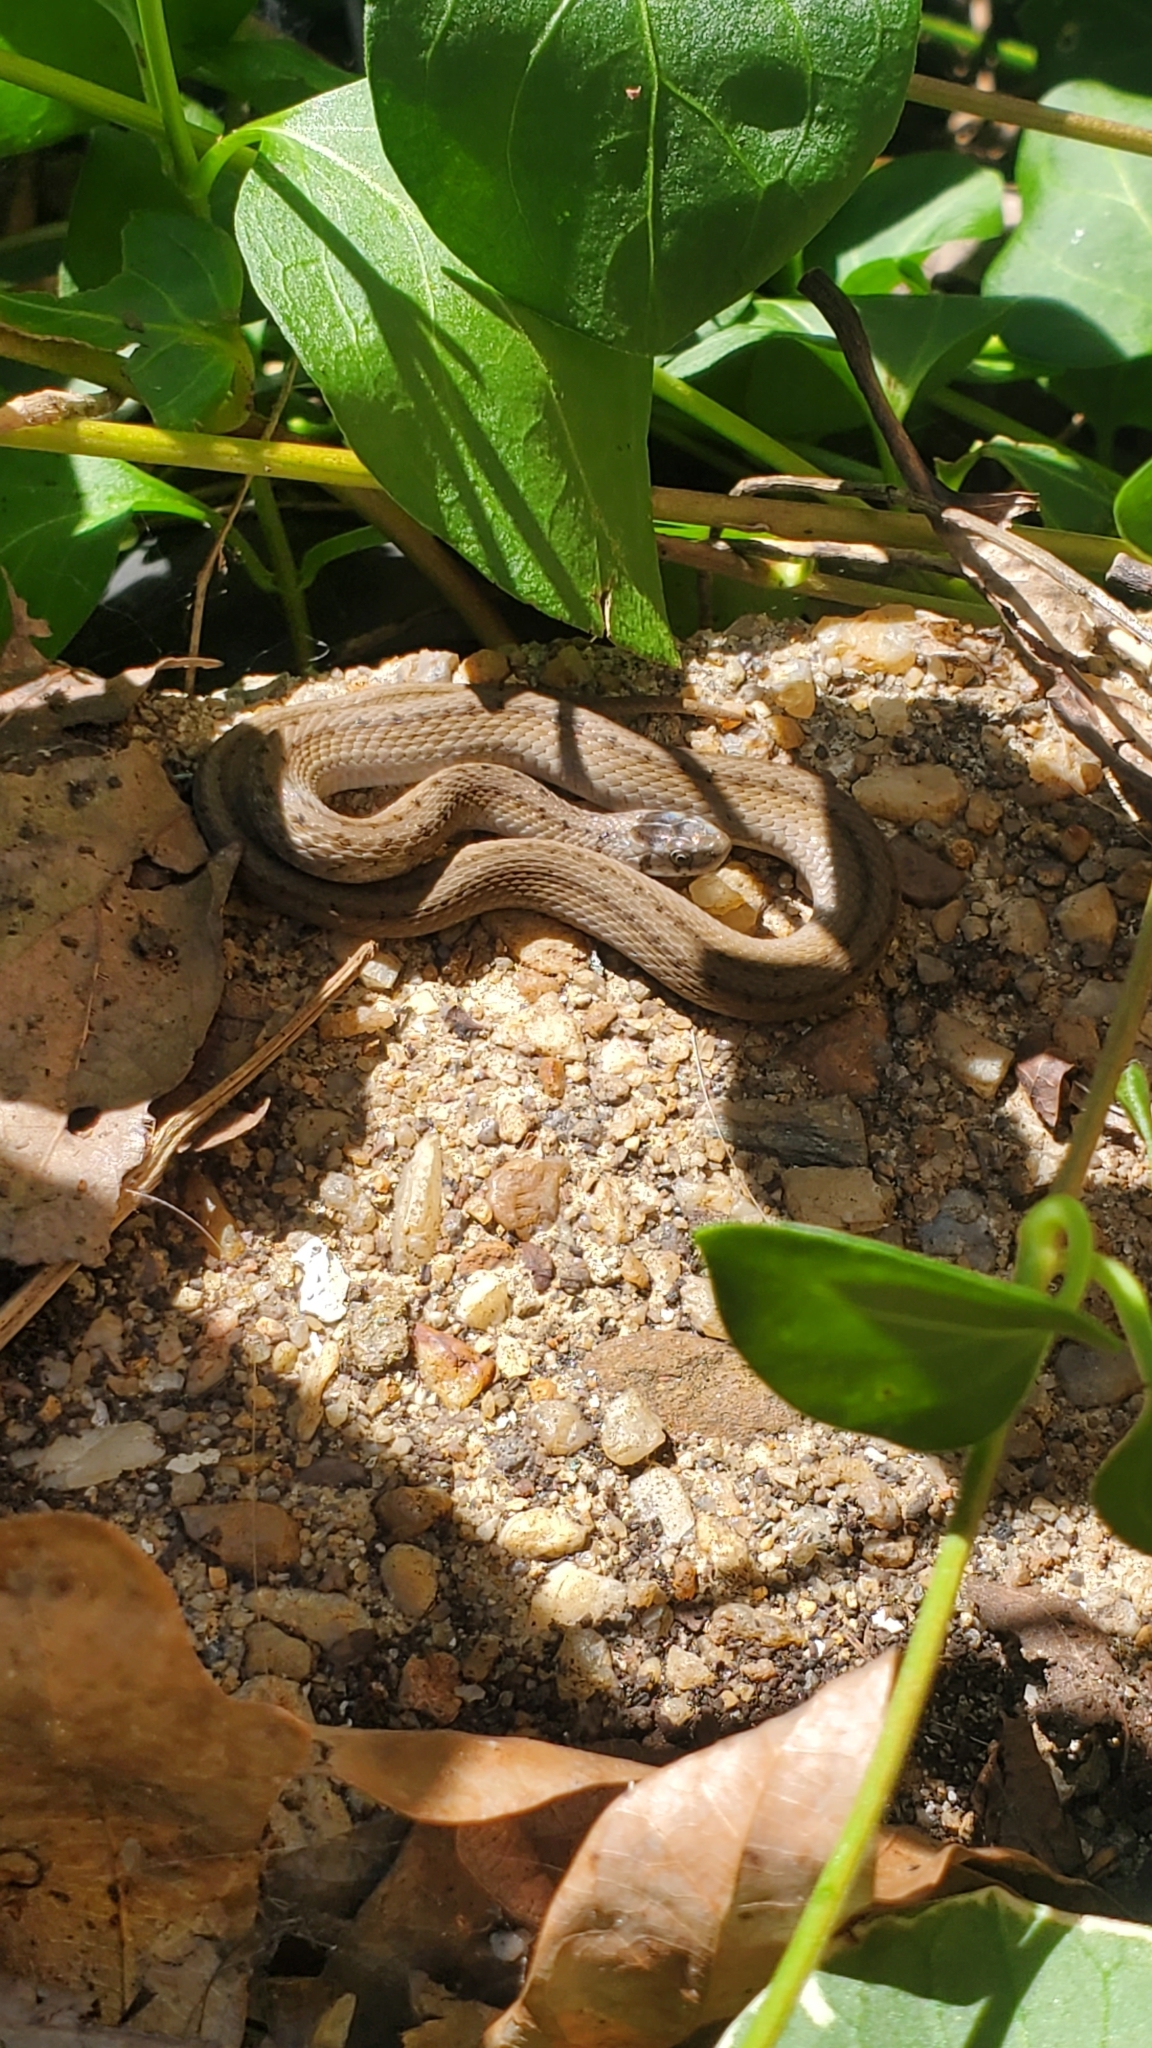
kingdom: Animalia
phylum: Chordata
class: Squamata
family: Colubridae
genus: Storeria
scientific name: Storeria dekayi
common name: (dekay’s) brown snake
